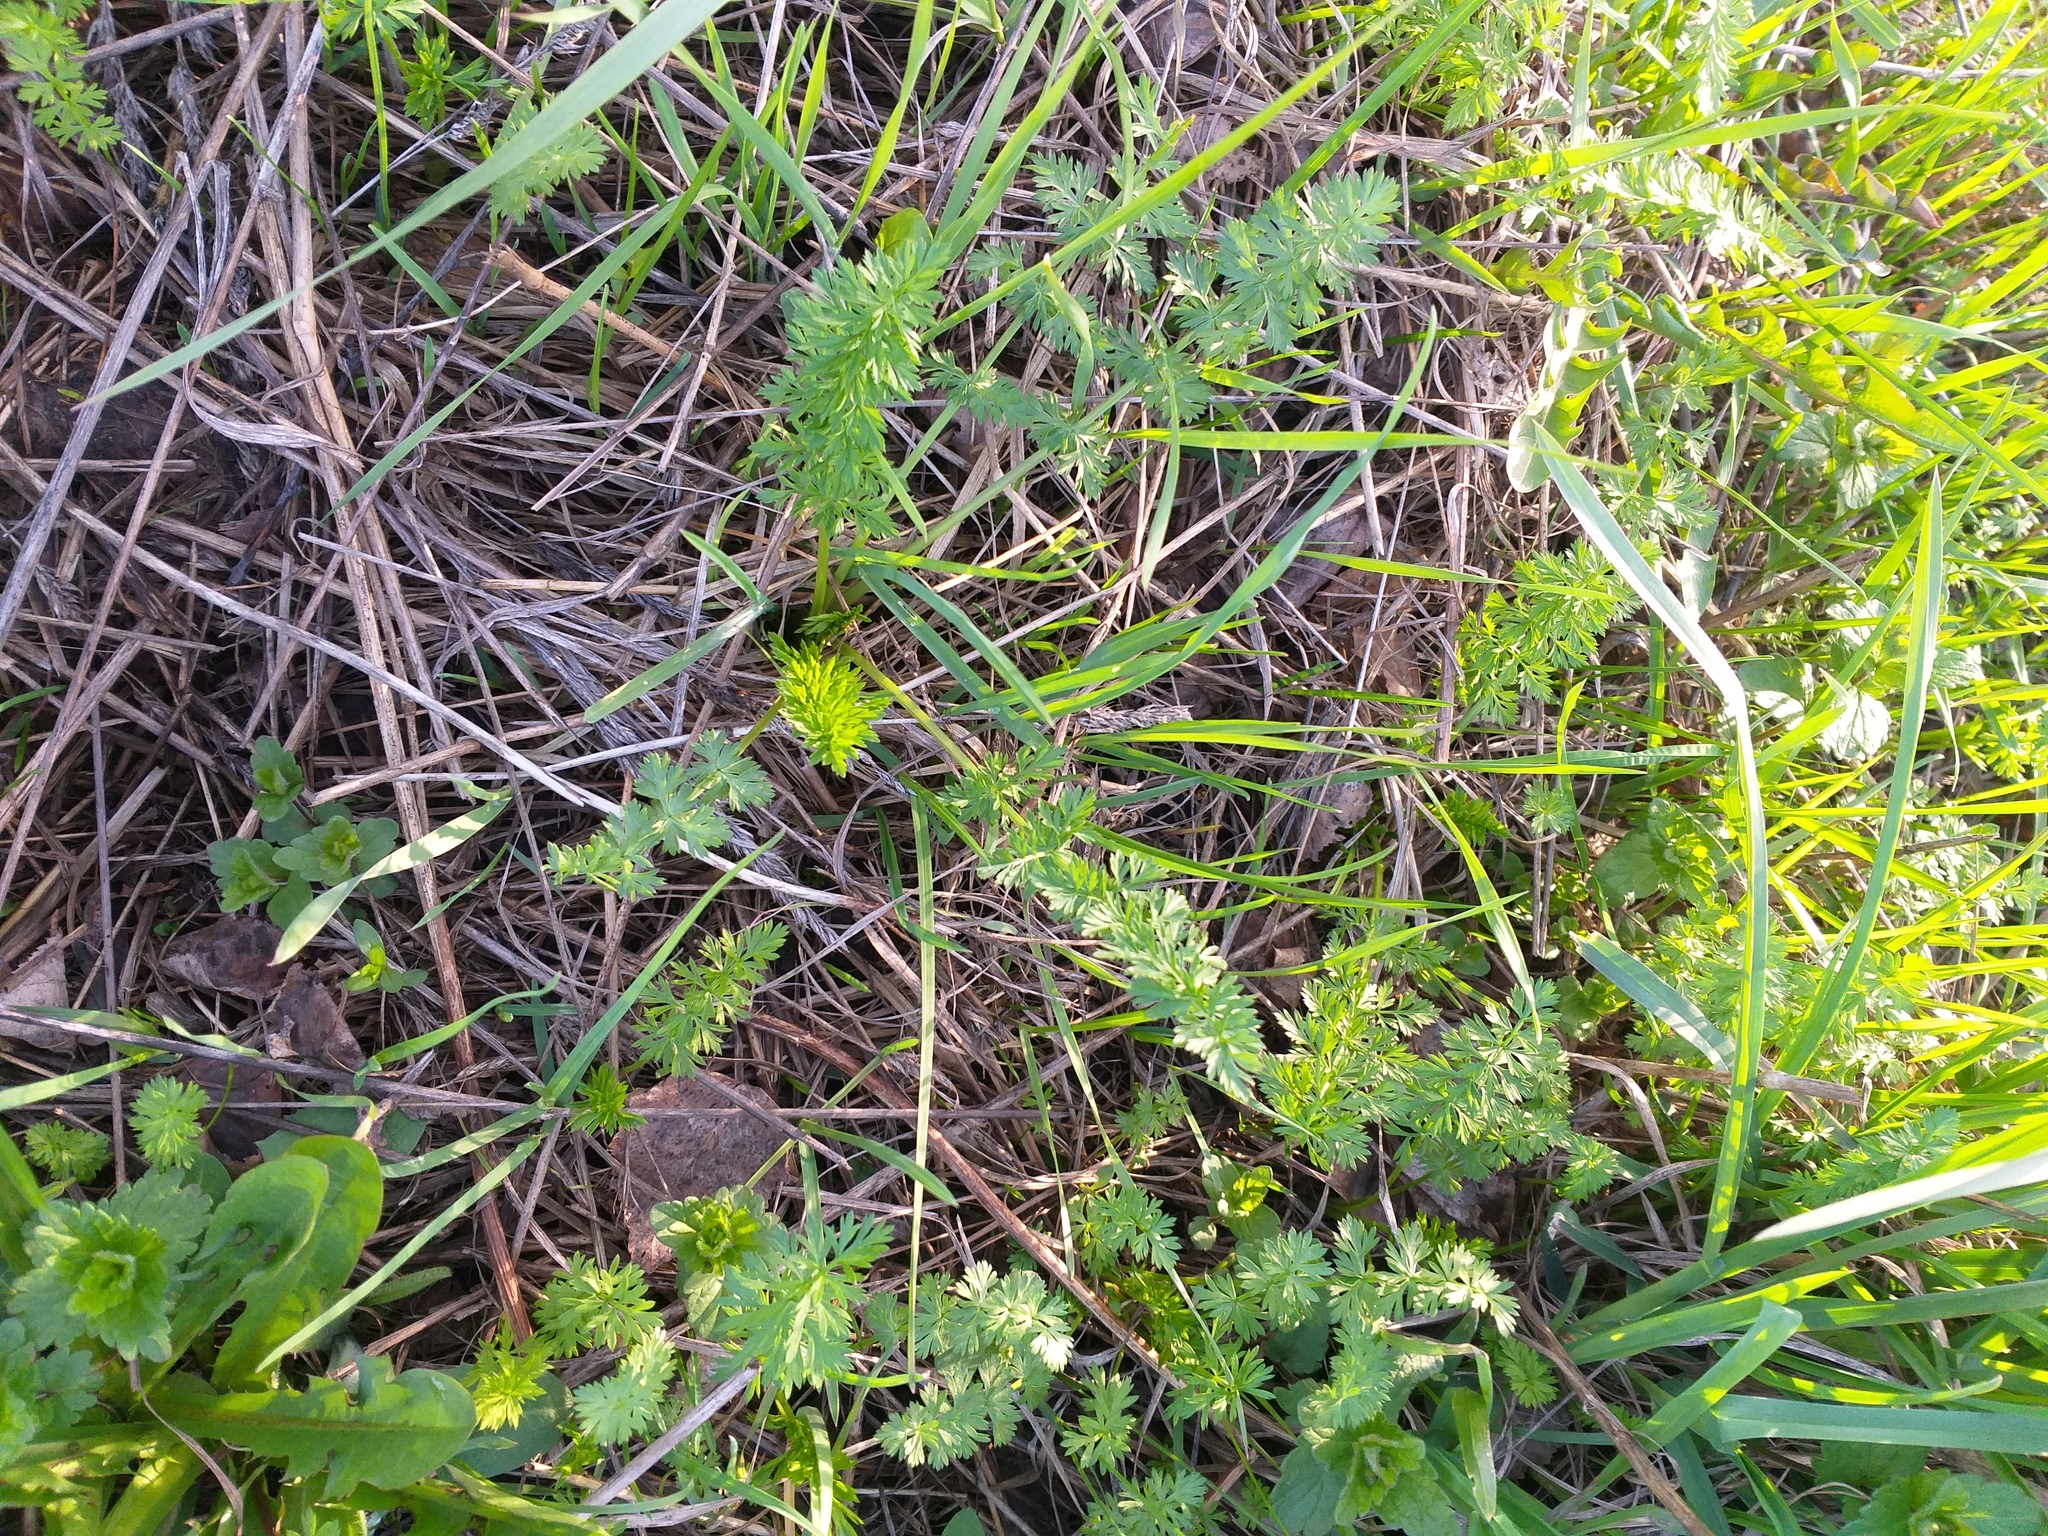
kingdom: Plantae
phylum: Tracheophyta
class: Magnoliopsida
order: Apiales
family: Apiaceae
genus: Carum
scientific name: Carum carvi
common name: Caraway
